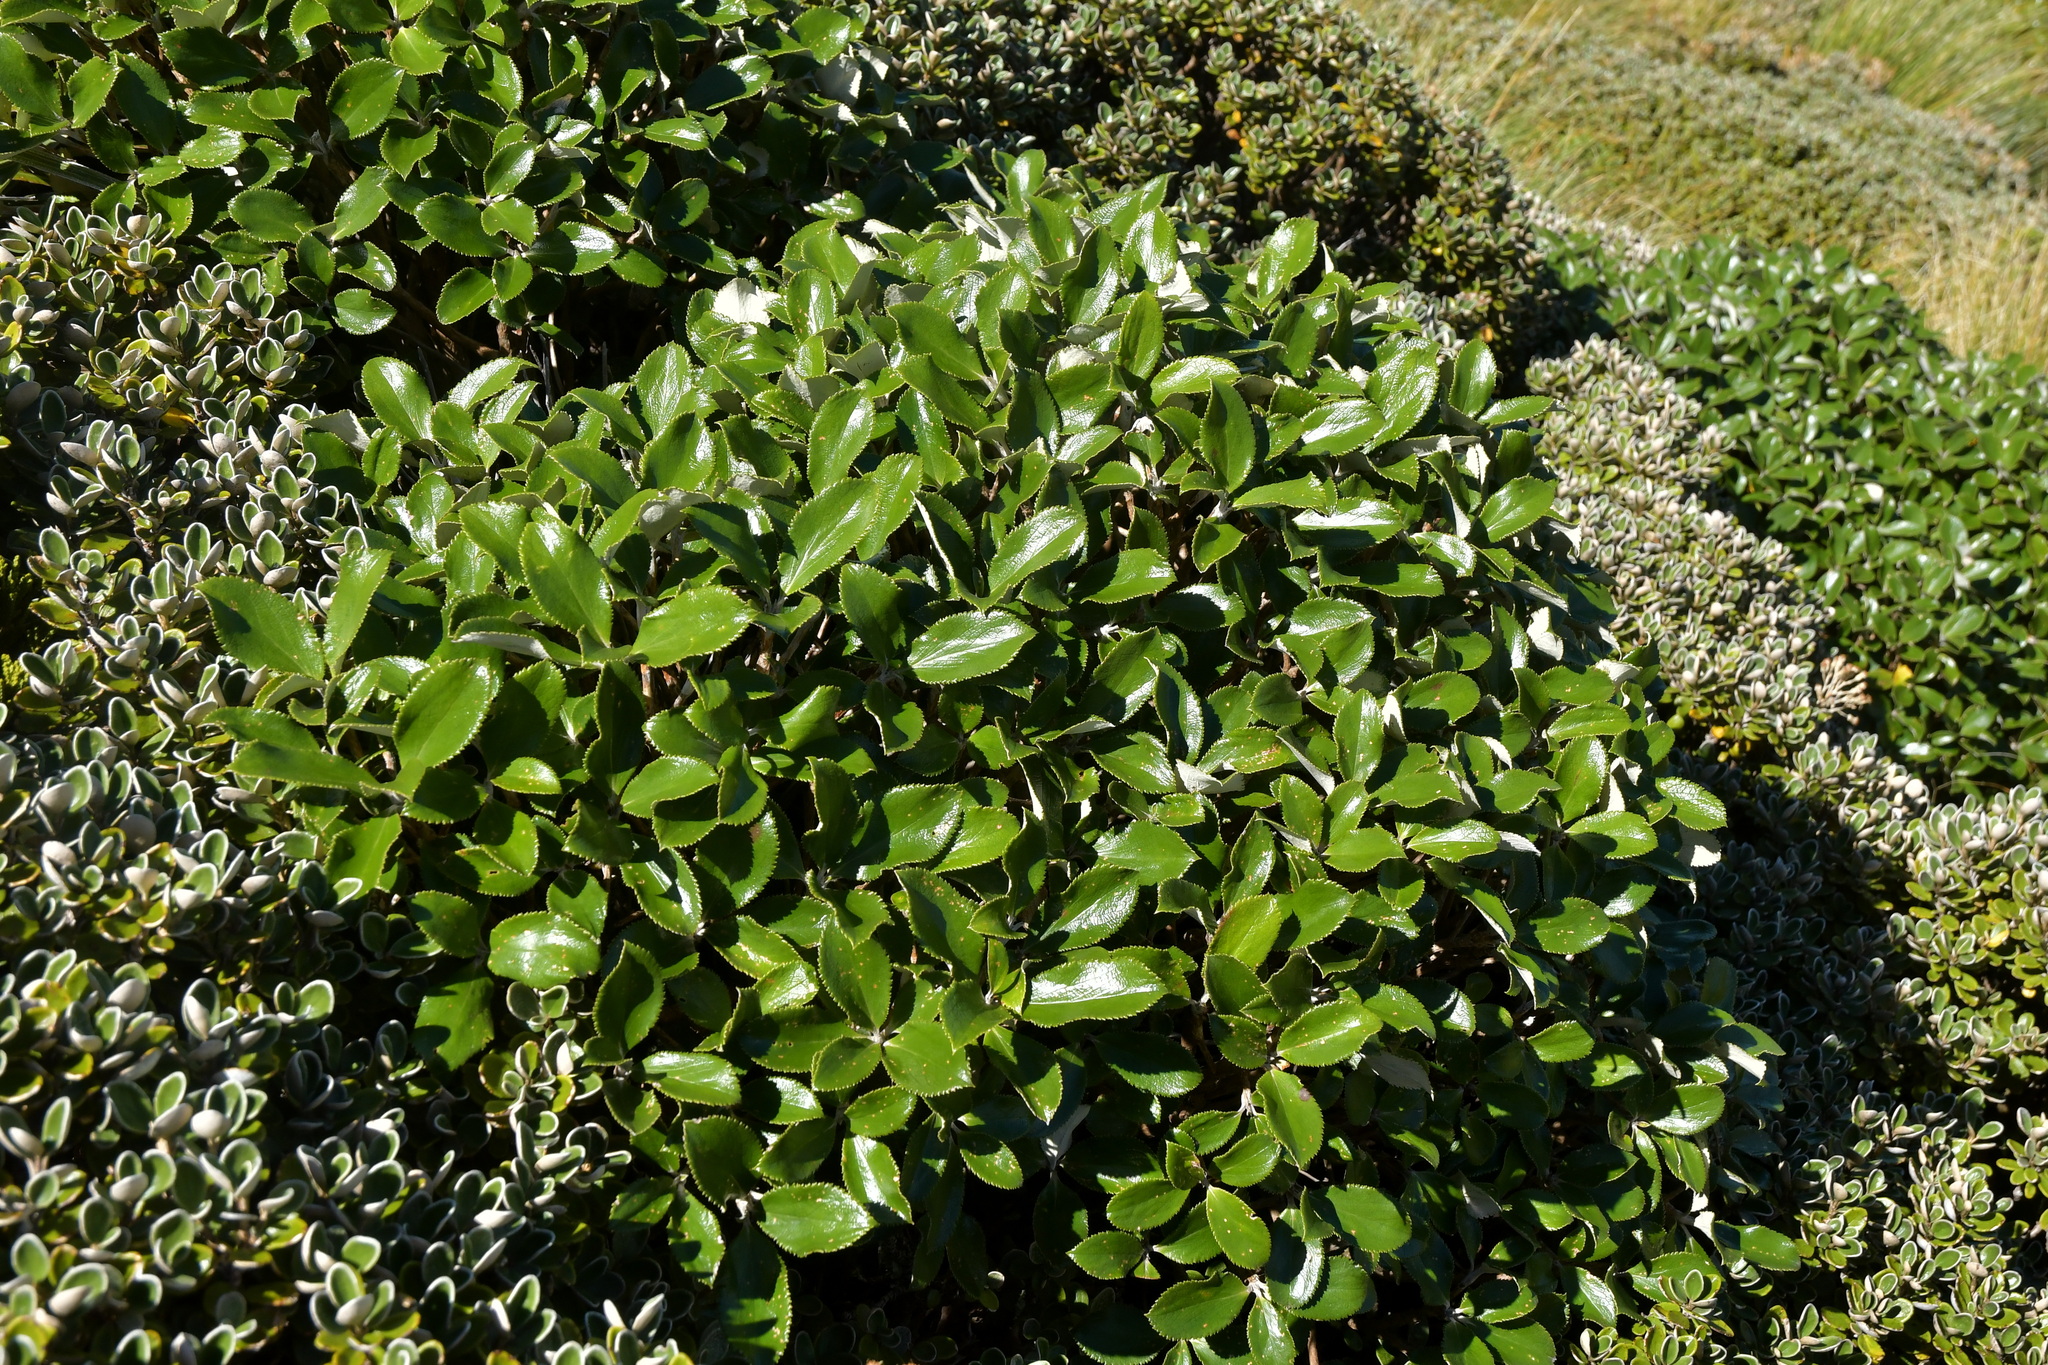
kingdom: Plantae
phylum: Tracheophyta
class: Magnoliopsida
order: Asterales
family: Asteraceae
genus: Macrolearia
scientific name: Macrolearia colensoi
